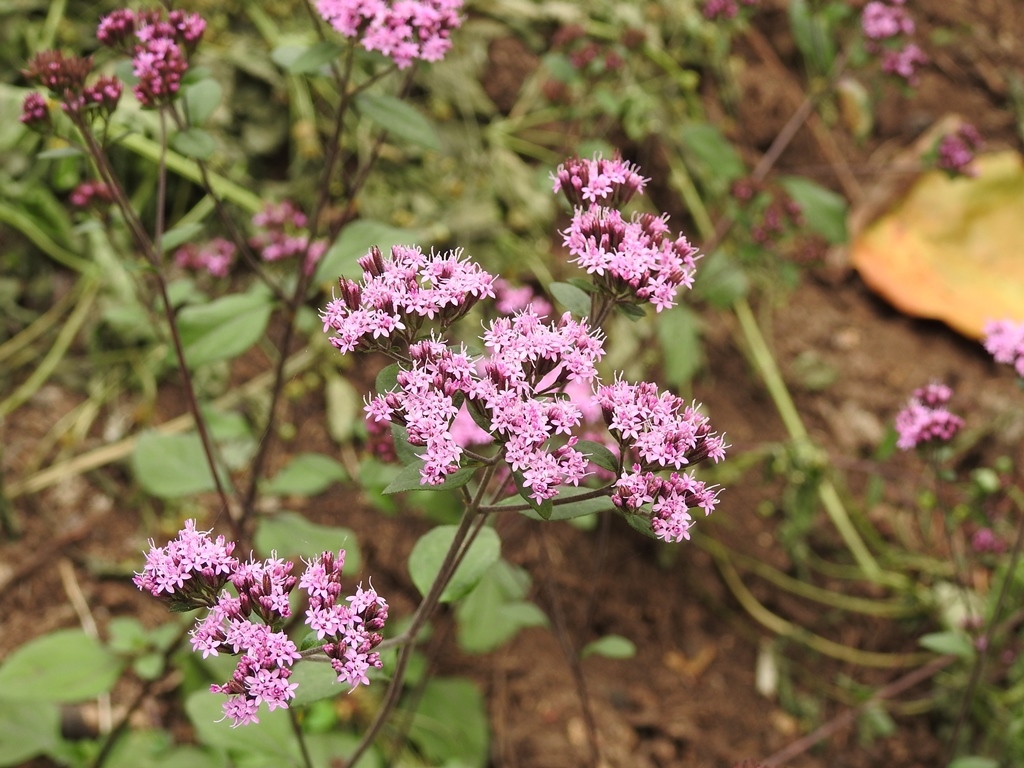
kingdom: Plantae
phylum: Tracheophyta
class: Magnoliopsida
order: Asterales
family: Asteraceae
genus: Stevia
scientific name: Stevia caracasana
